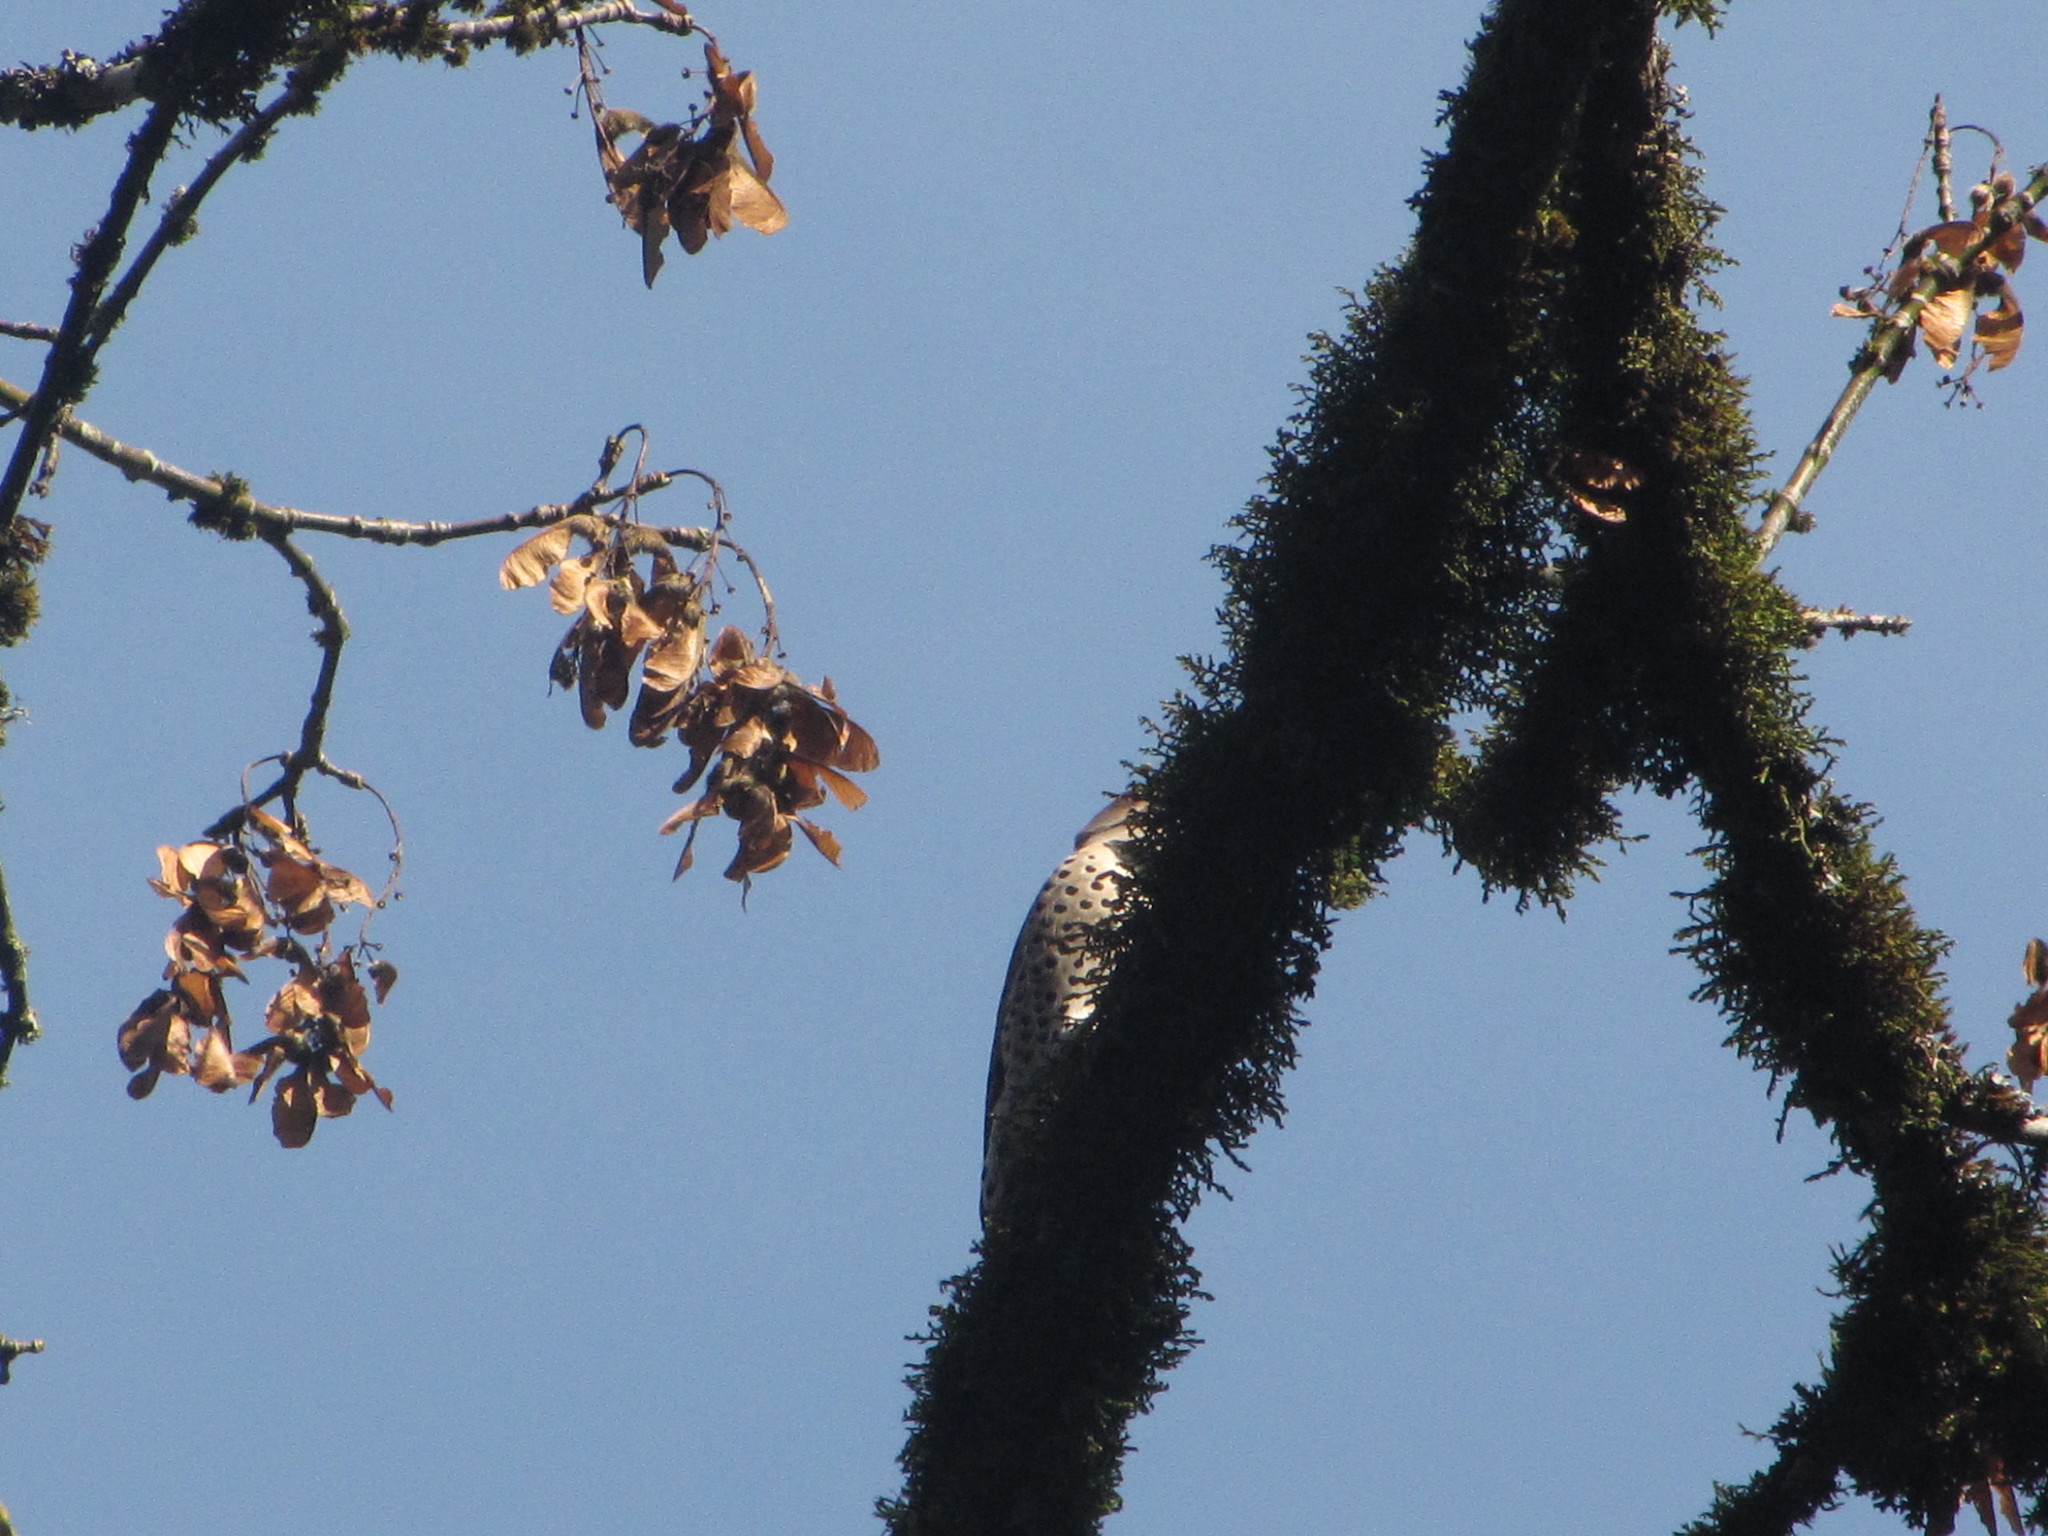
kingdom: Animalia
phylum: Chordata
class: Aves
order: Piciformes
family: Picidae
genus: Colaptes
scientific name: Colaptes auratus
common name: Northern flicker
